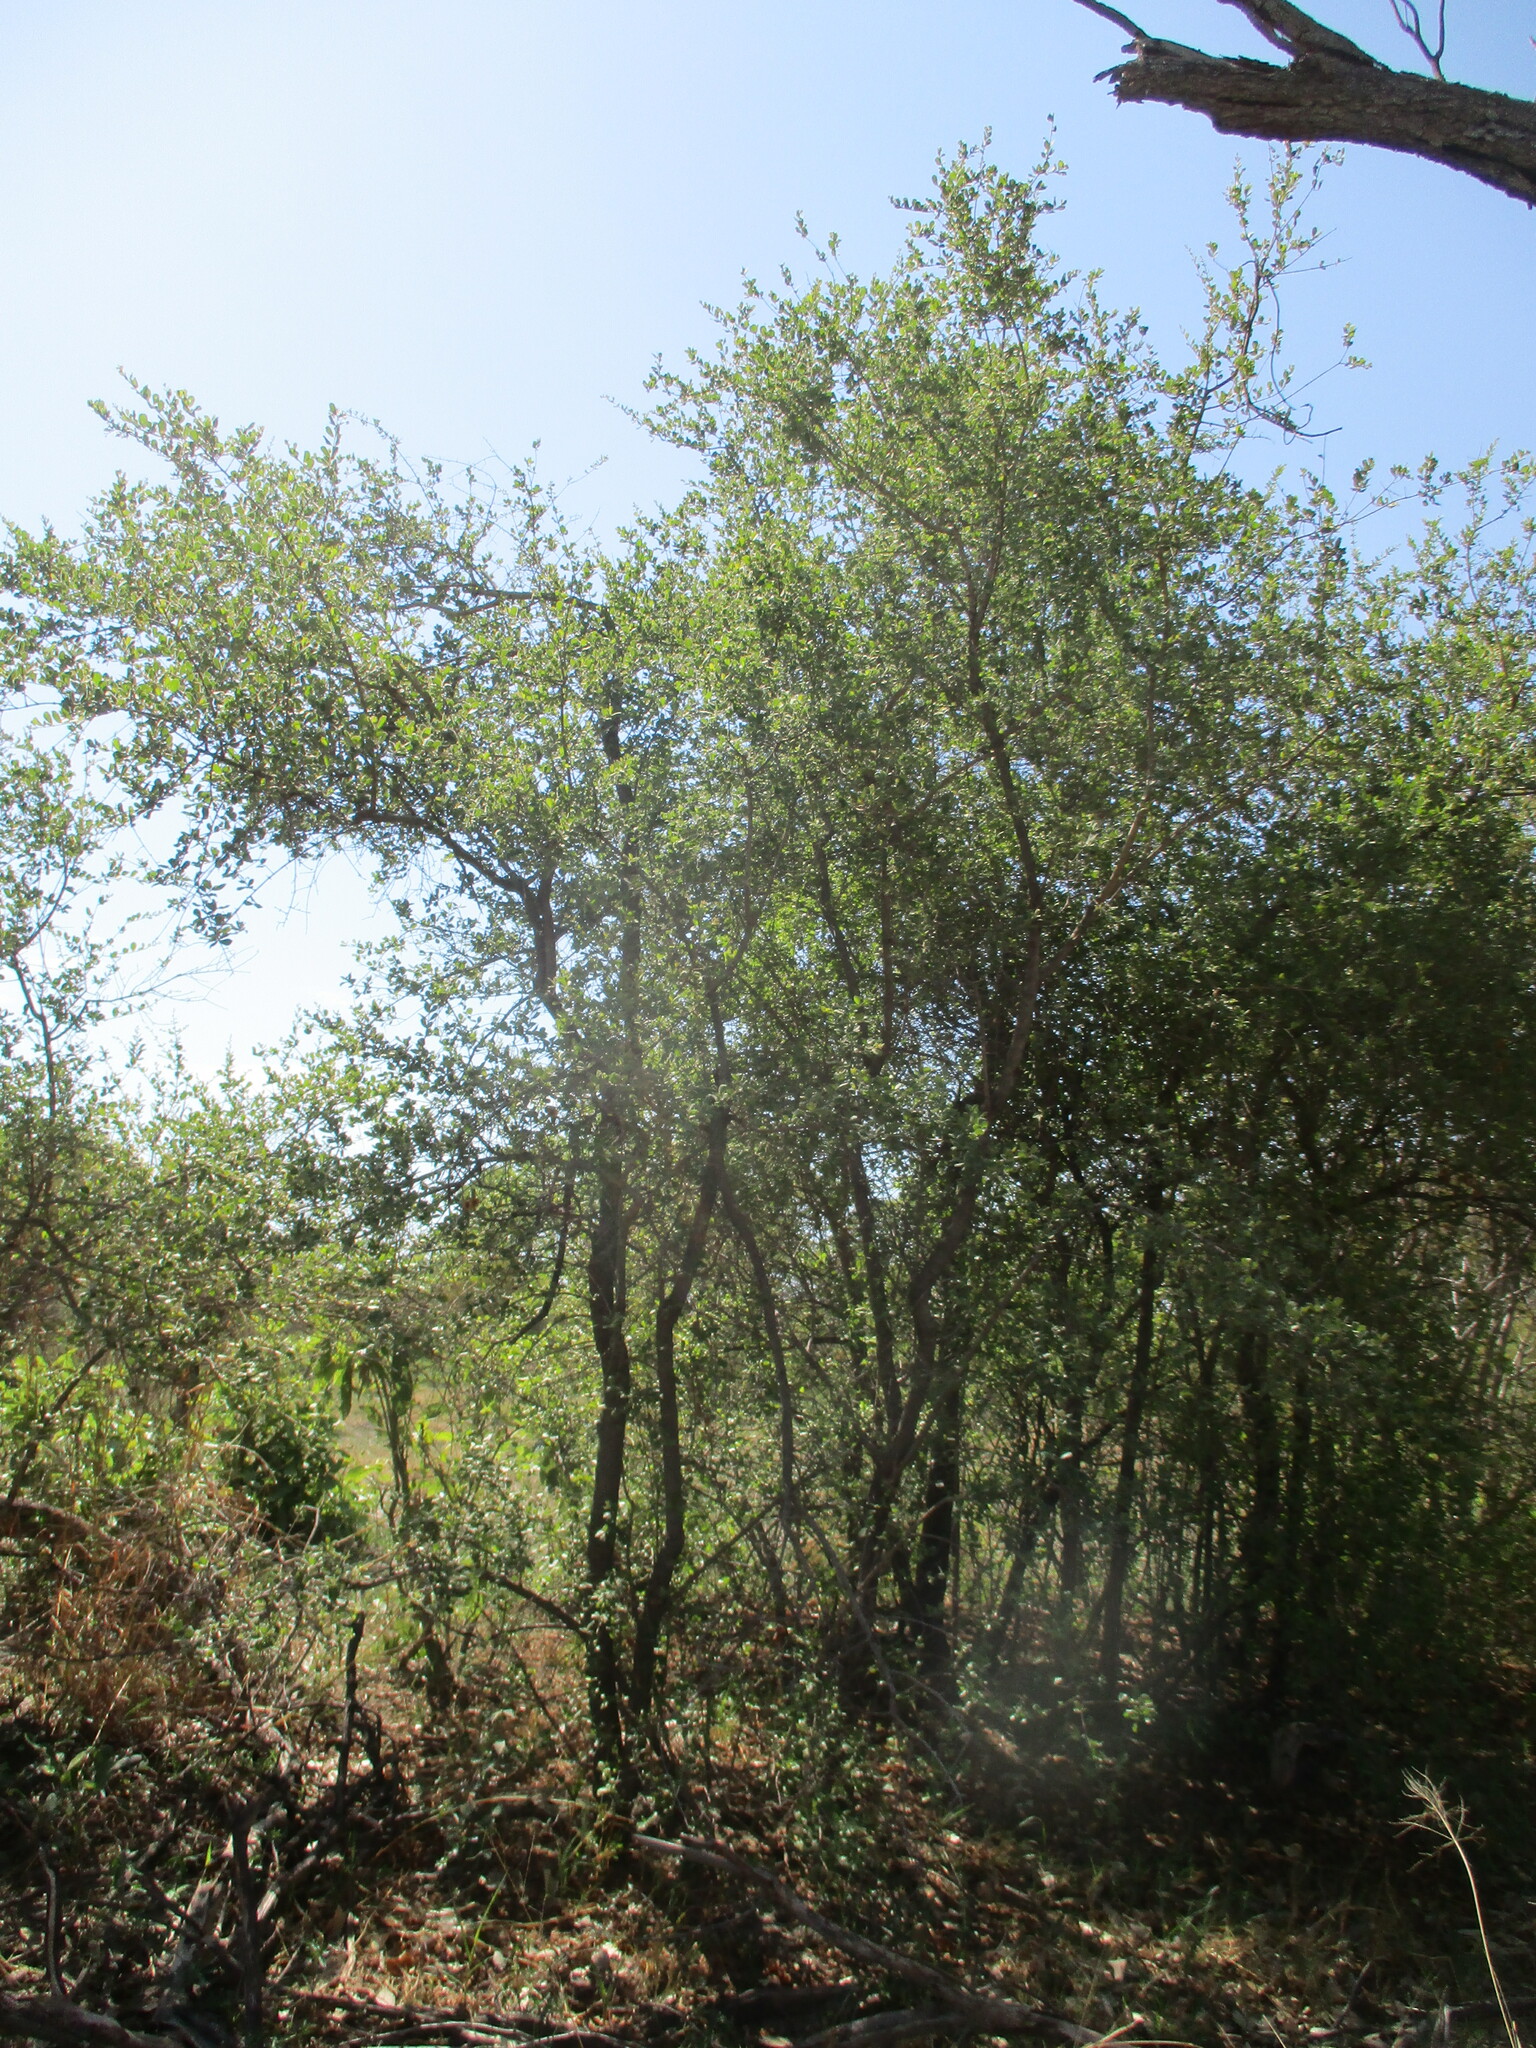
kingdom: Plantae
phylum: Tracheophyta
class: Magnoliopsida
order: Myrtales
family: Combretaceae
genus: Combretum
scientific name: Combretum hereroense
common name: Russet bushwillow
